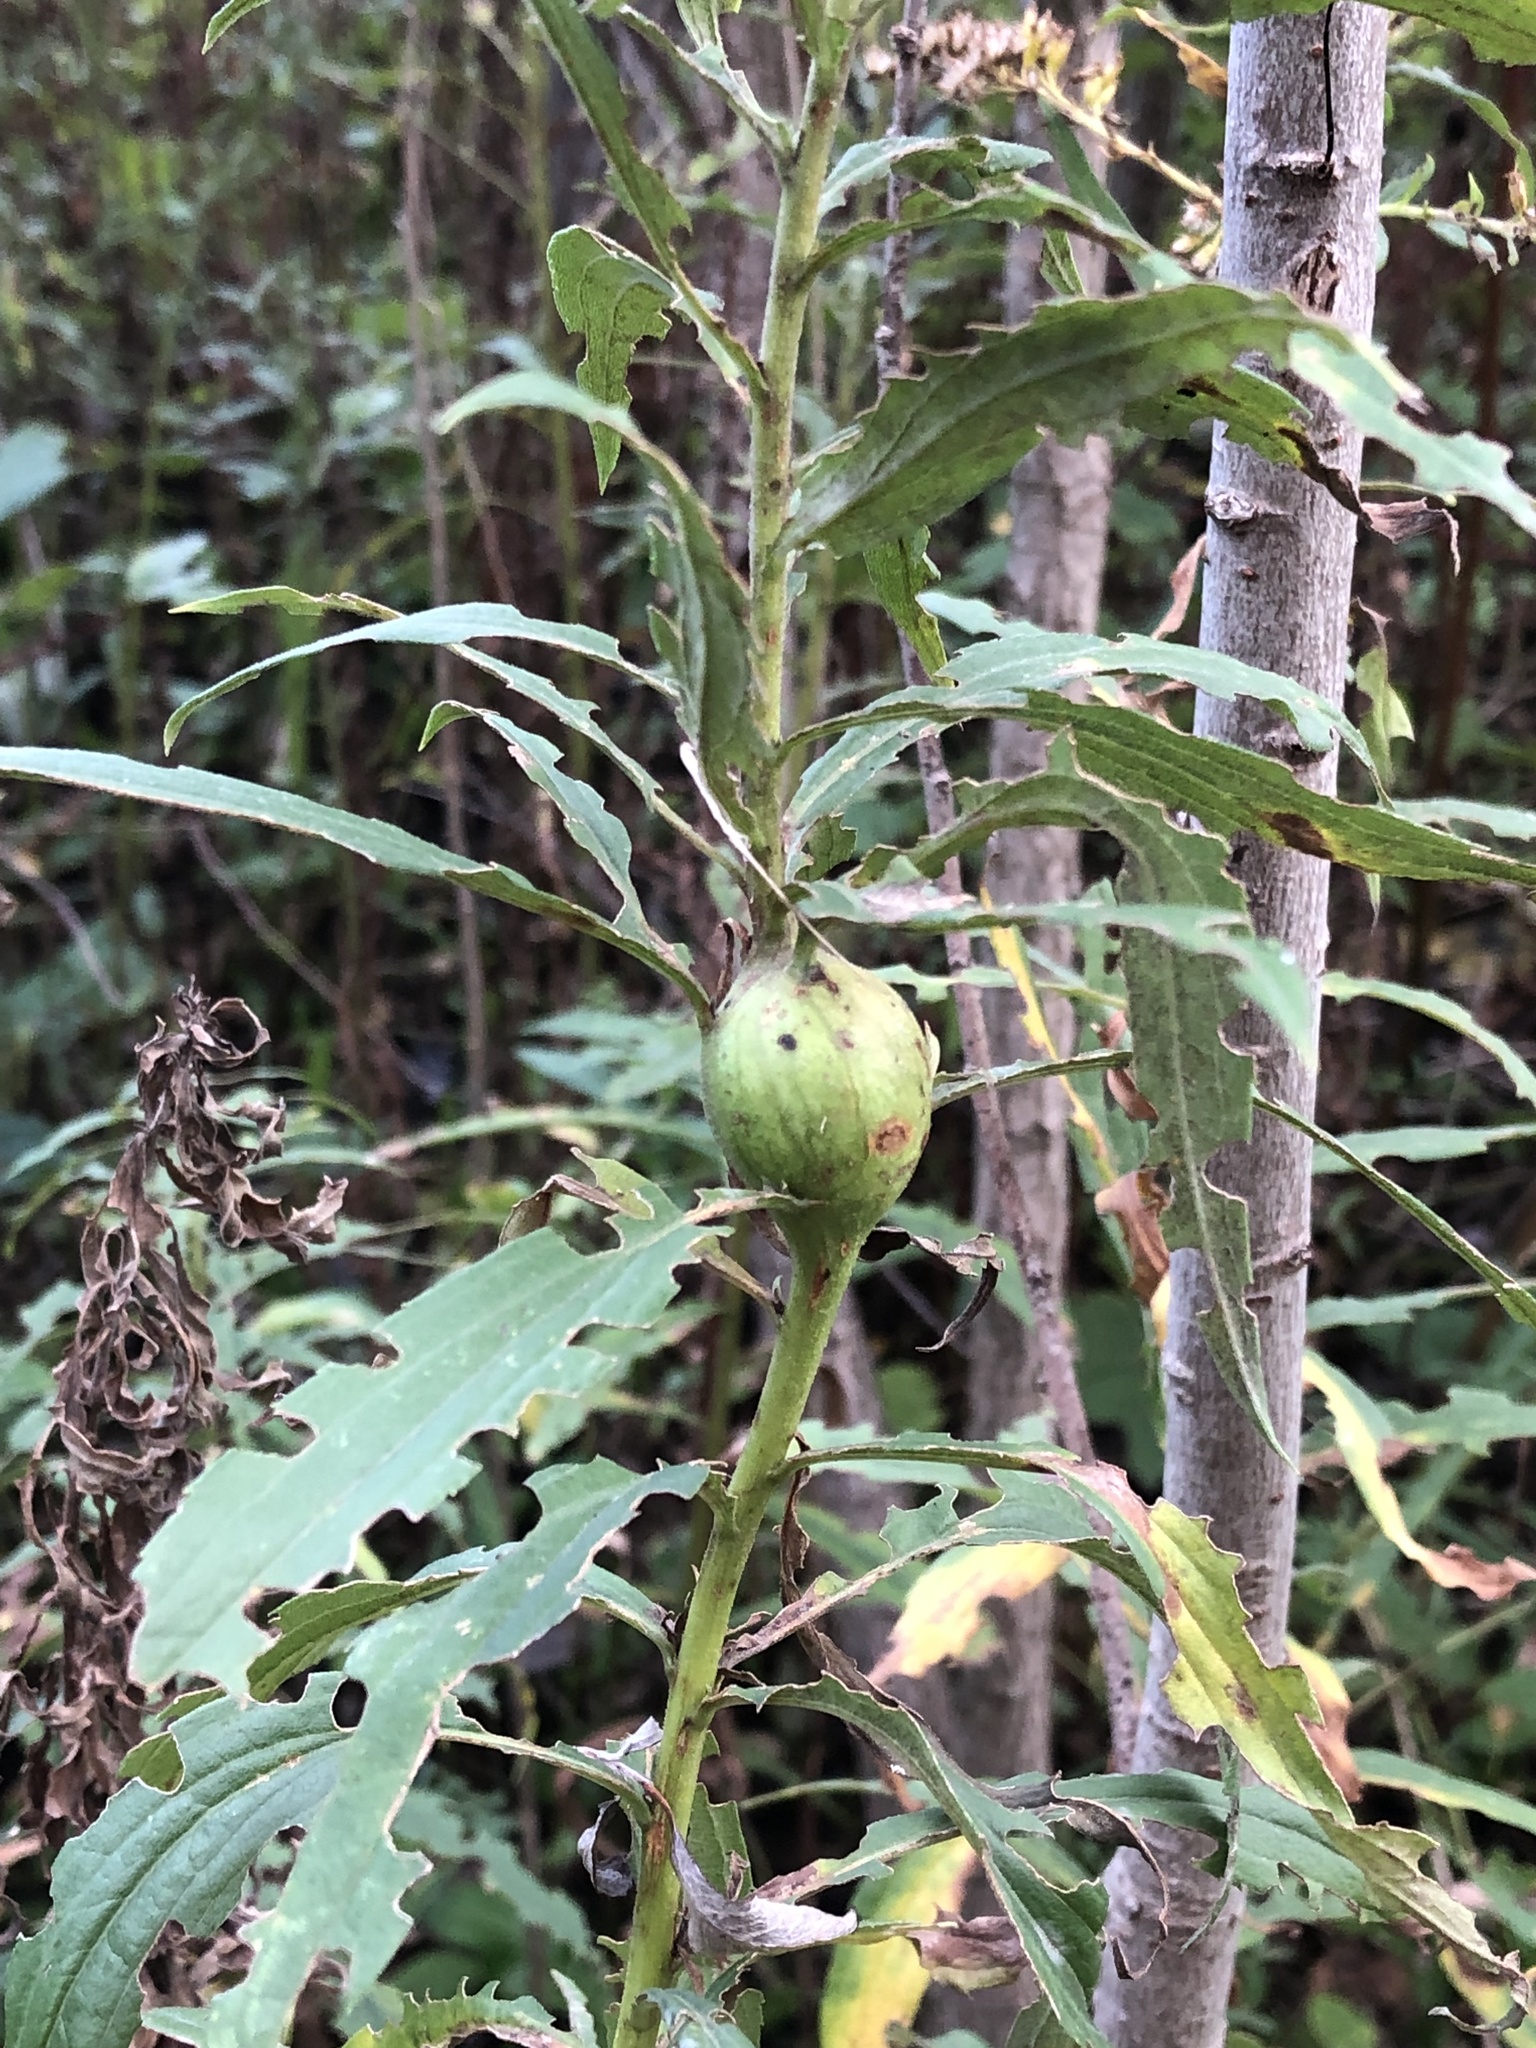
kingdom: Animalia
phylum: Arthropoda
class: Insecta
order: Diptera
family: Tephritidae
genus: Eurosta
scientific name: Eurosta solidaginis
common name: Goldenrod gall fly
